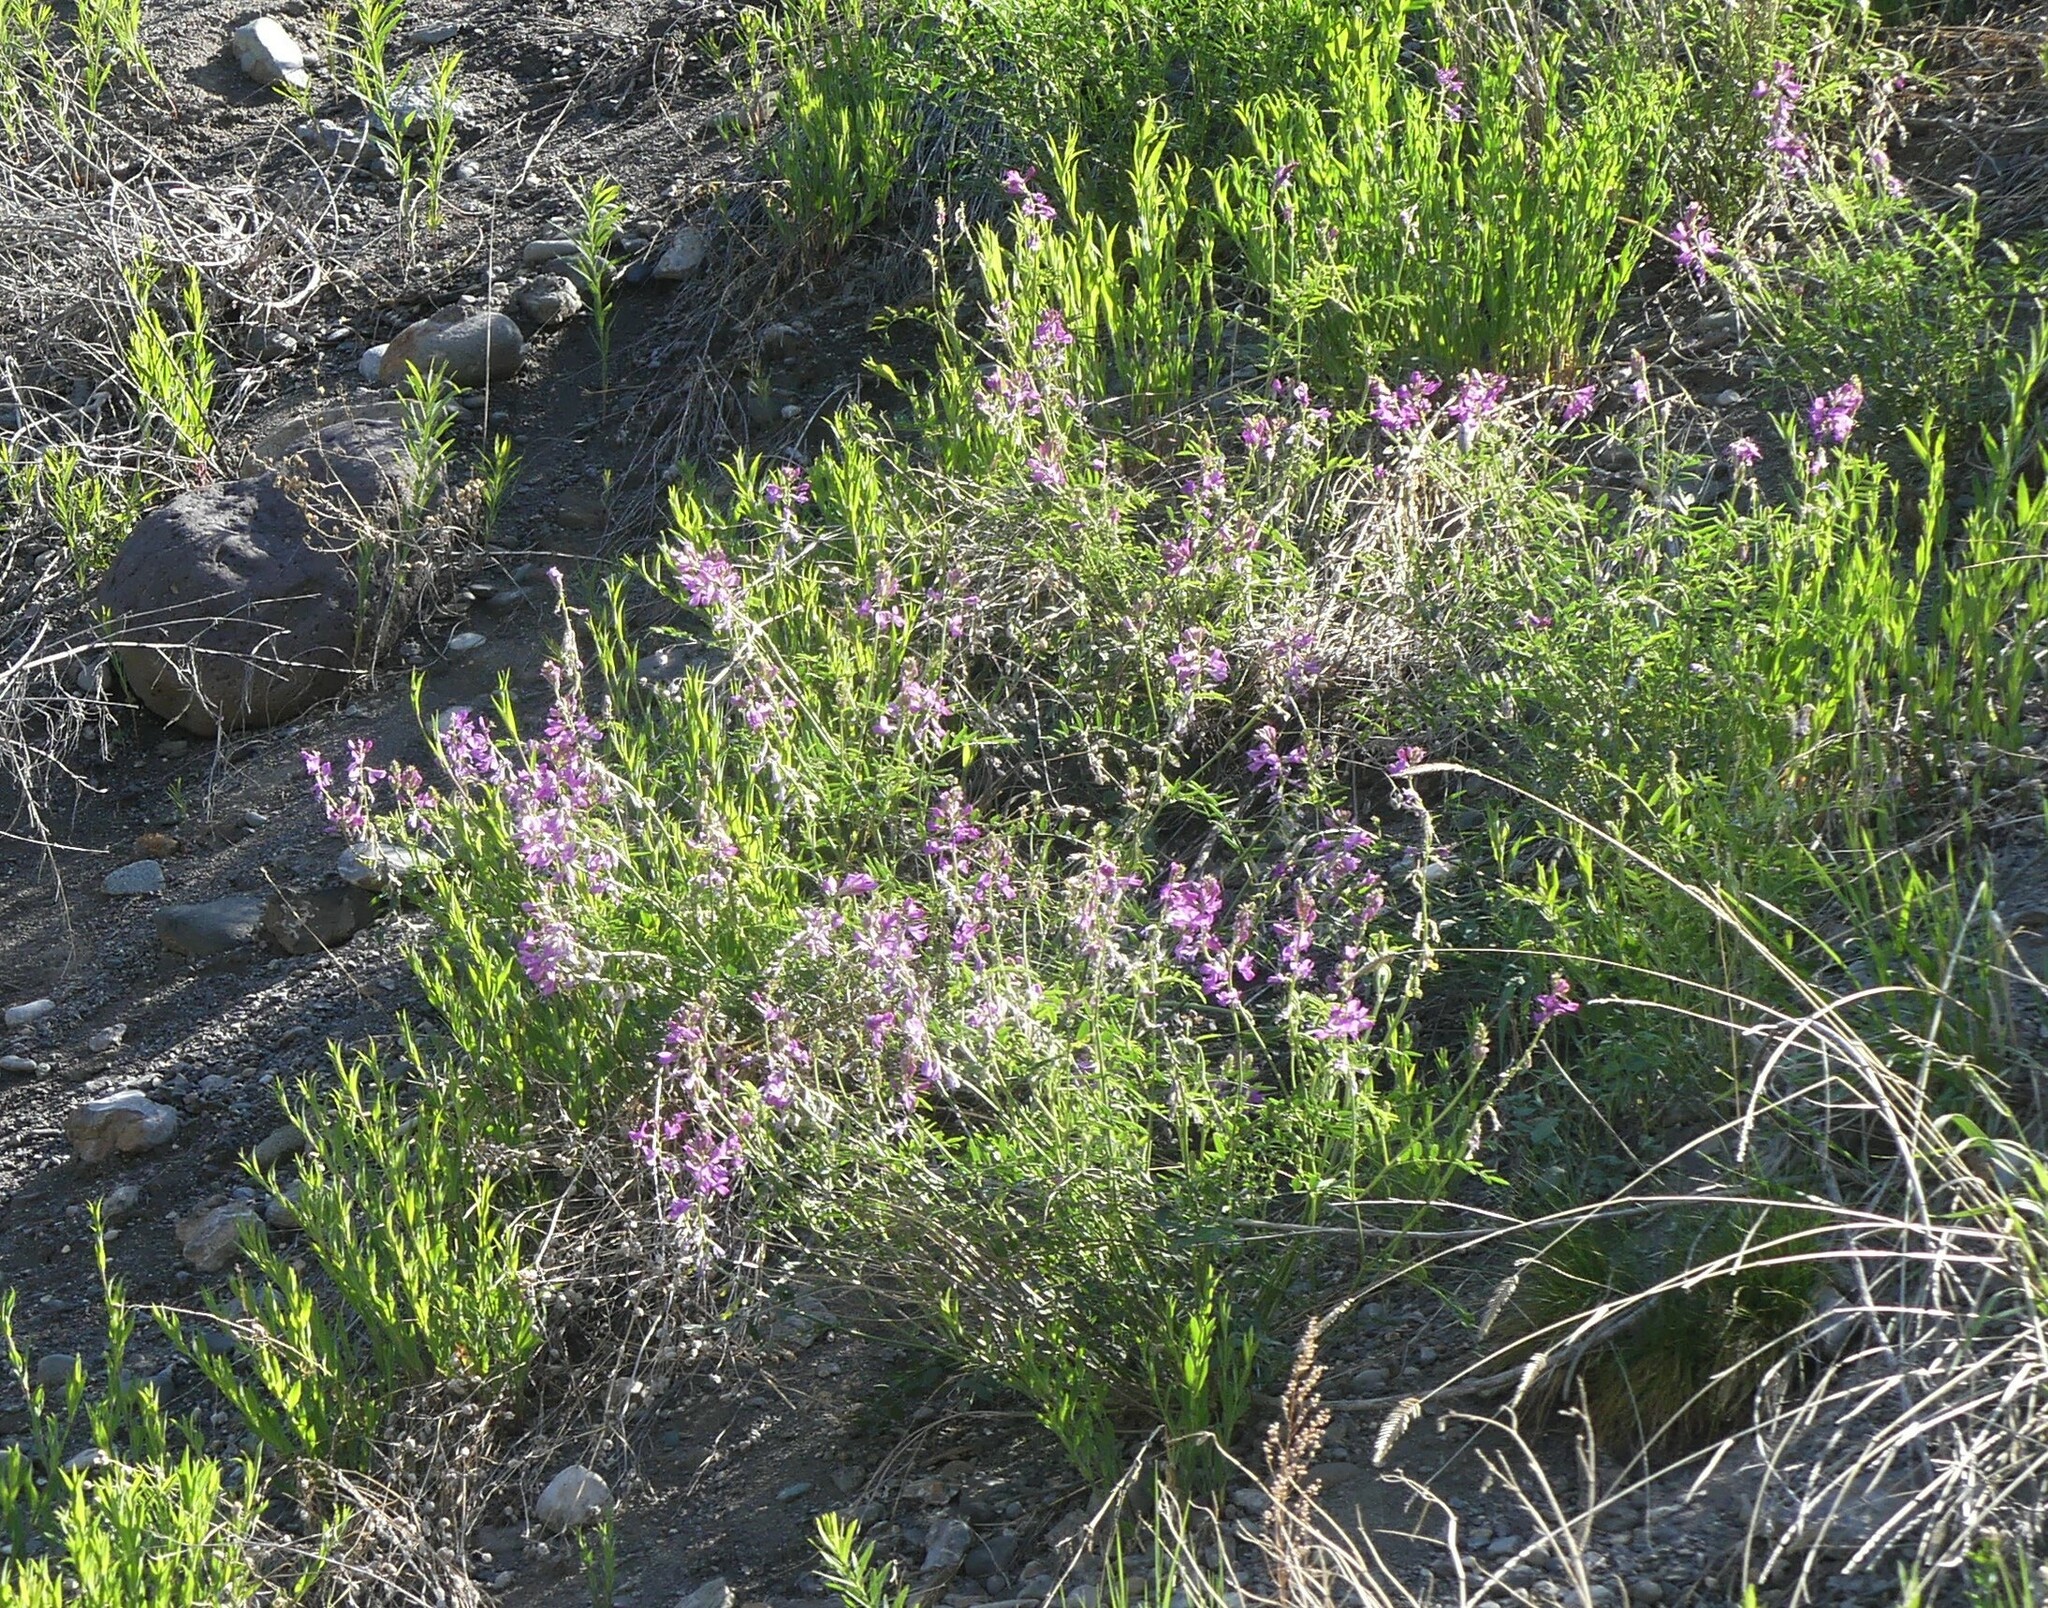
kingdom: Plantae
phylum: Tracheophyta
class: Magnoliopsida
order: Fabales
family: Fabaceae
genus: Hedysarum
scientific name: Hedysarum boreale
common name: Northern sweet-vetch
